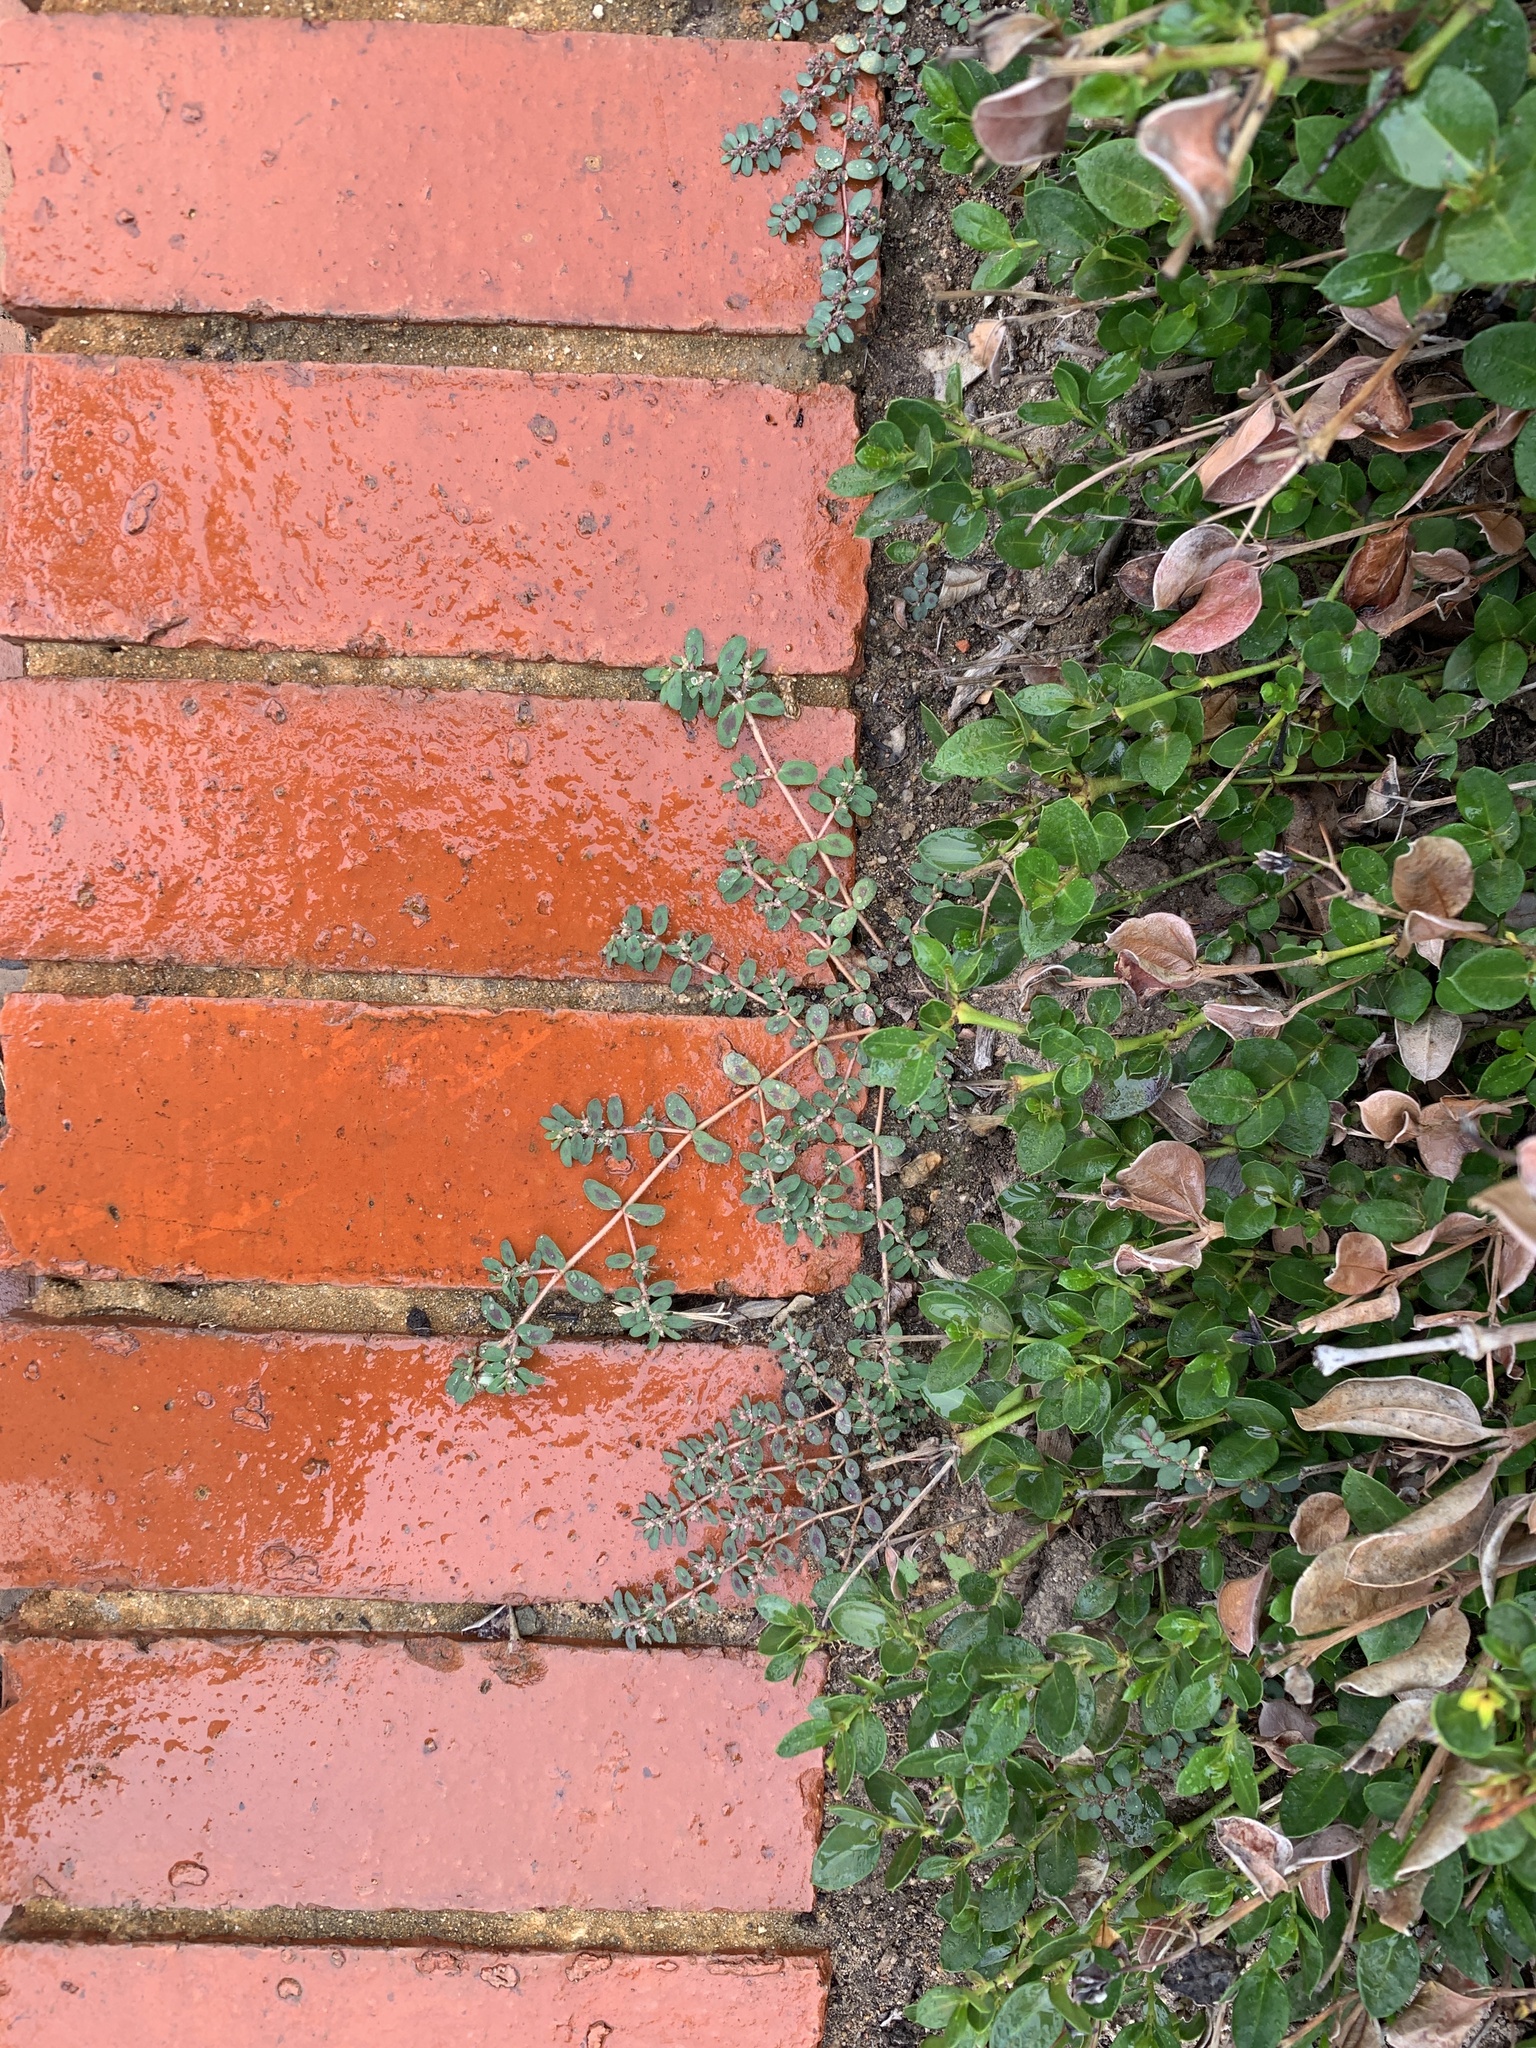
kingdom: Plantae
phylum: Tracheophyta
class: Magnoliopsida
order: Malpighiales
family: Euphorbiaceae
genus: Euphorbia
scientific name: Euphorbia maculata
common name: Spotted spurge
